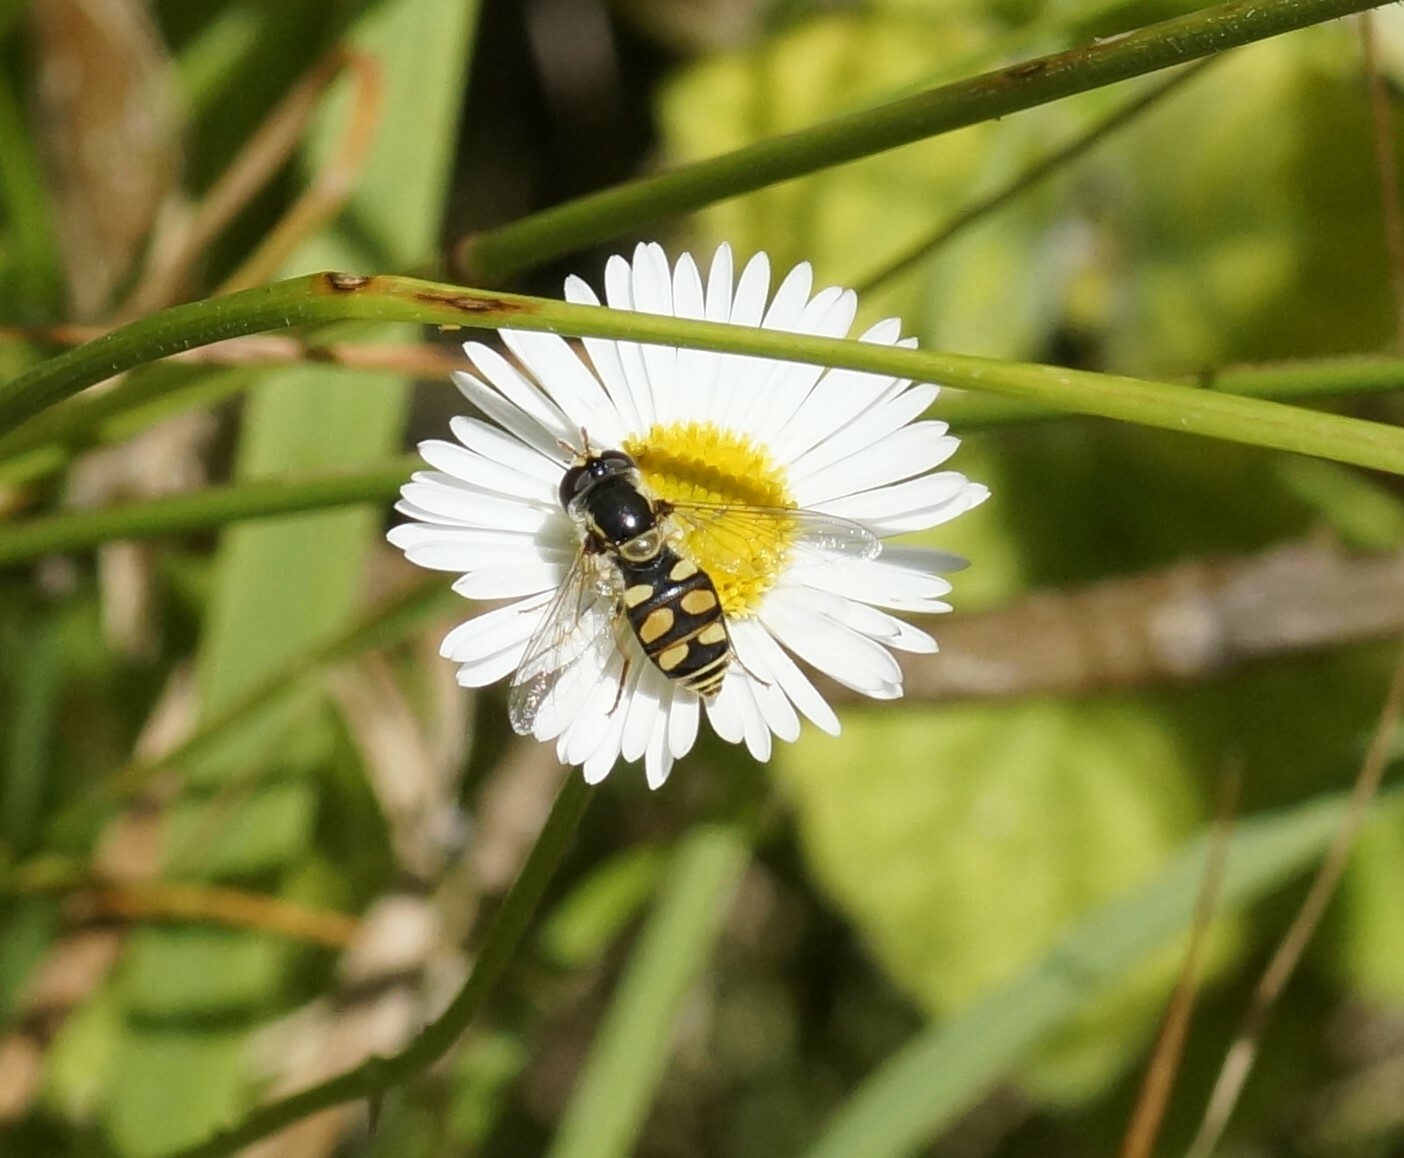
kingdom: Animalia
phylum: Arthropoda
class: Insecta
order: Diptera
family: Syrphidae
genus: Simosyrphus
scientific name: Simosyrphus grandicornis
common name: Hoverfly
